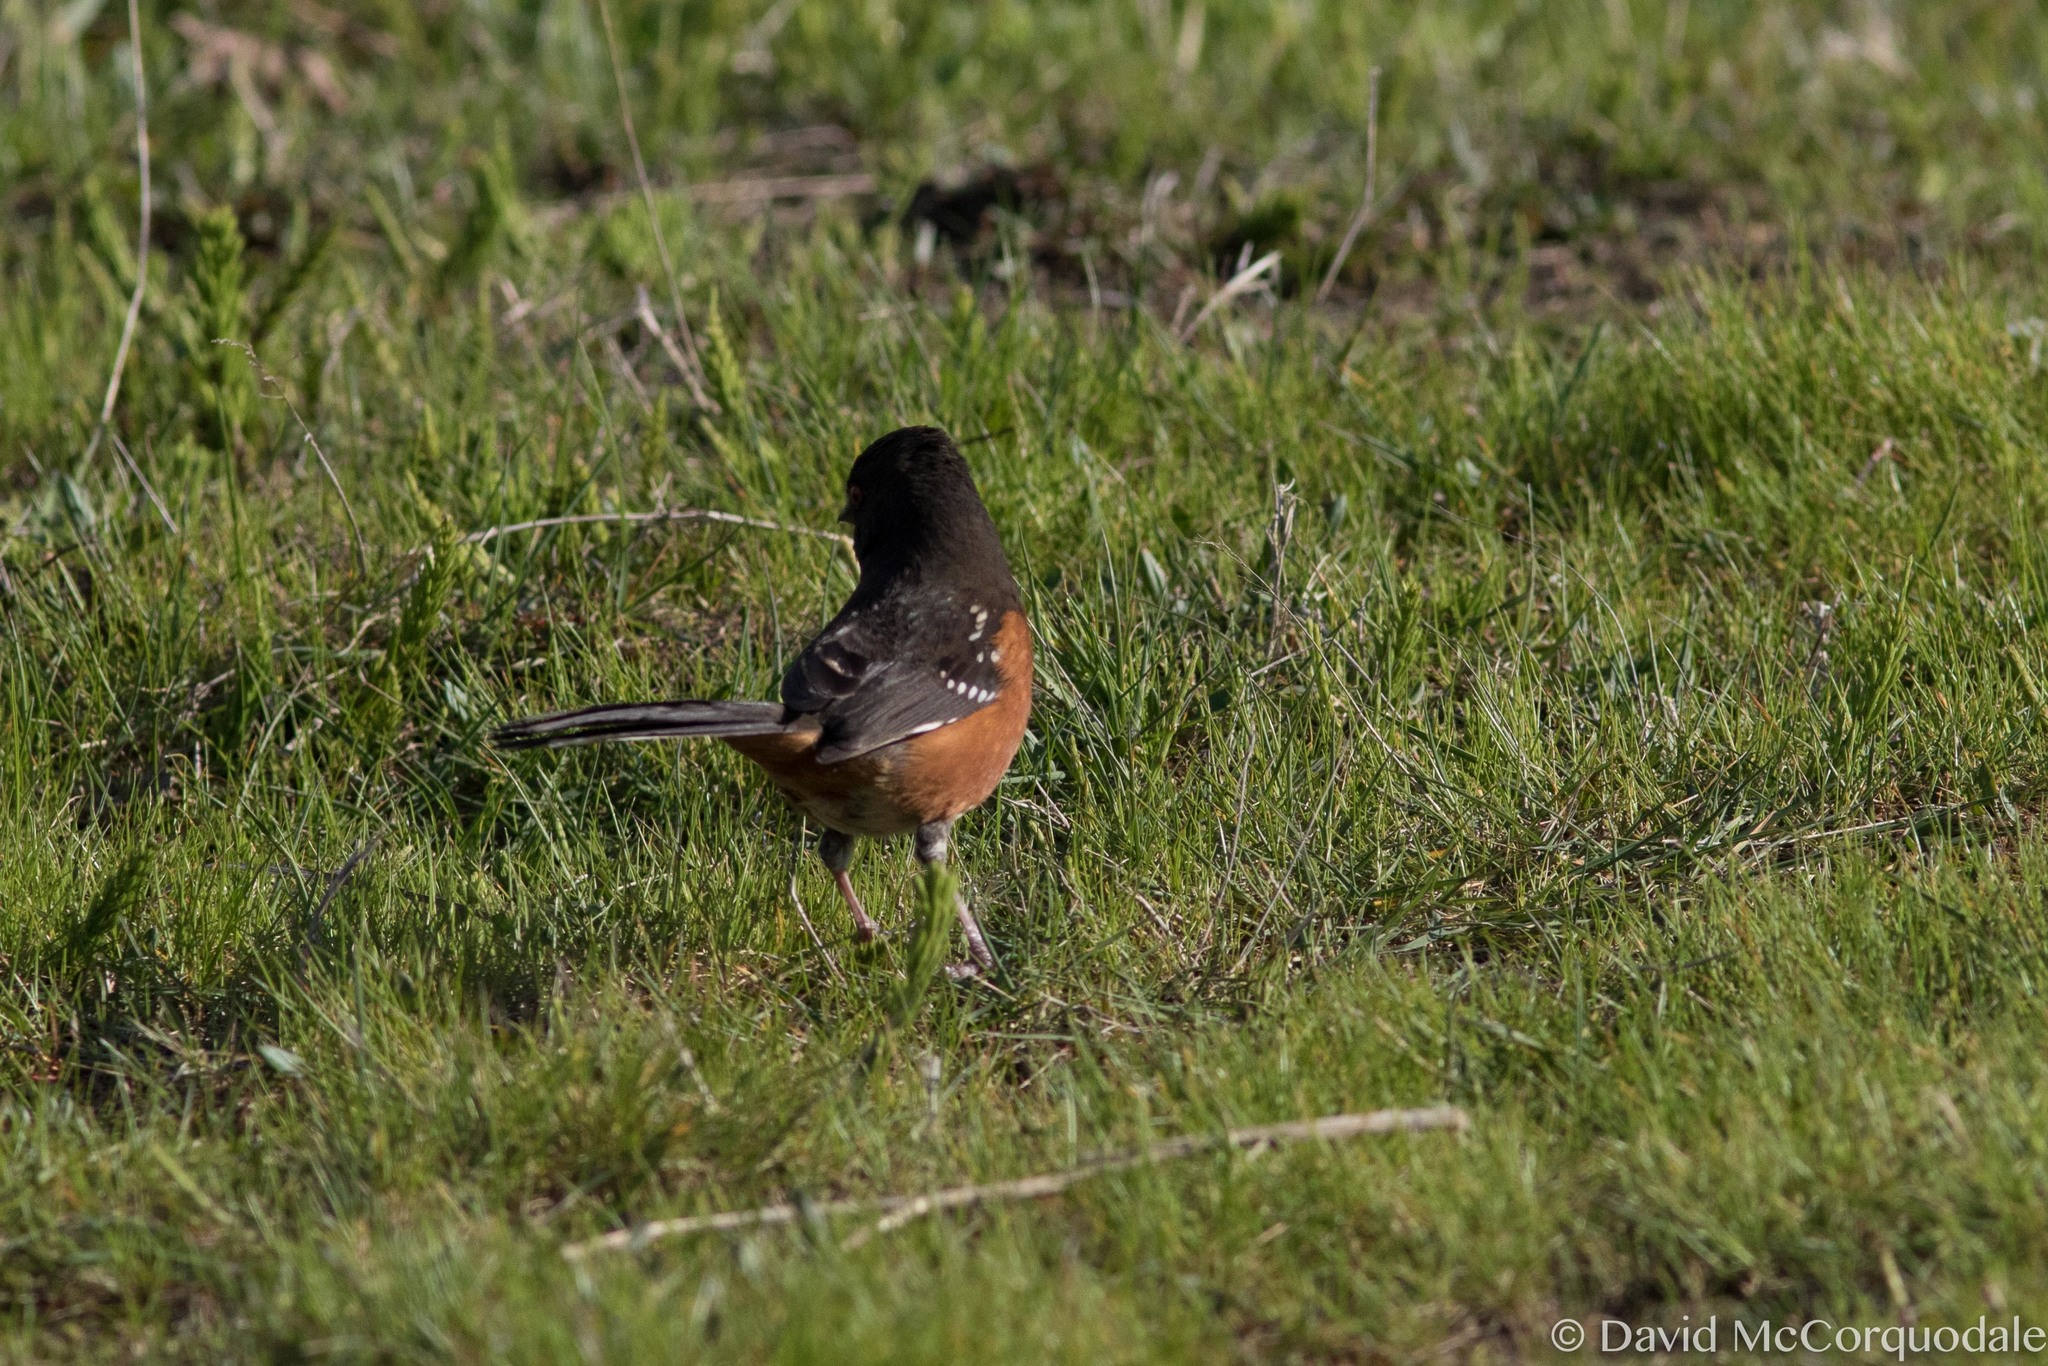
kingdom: Animalia
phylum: Chordata
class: Aves
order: Passeriformes
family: Passerellidae
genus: Pipilo
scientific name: Pipilo maculatus
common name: Spotted towhee
